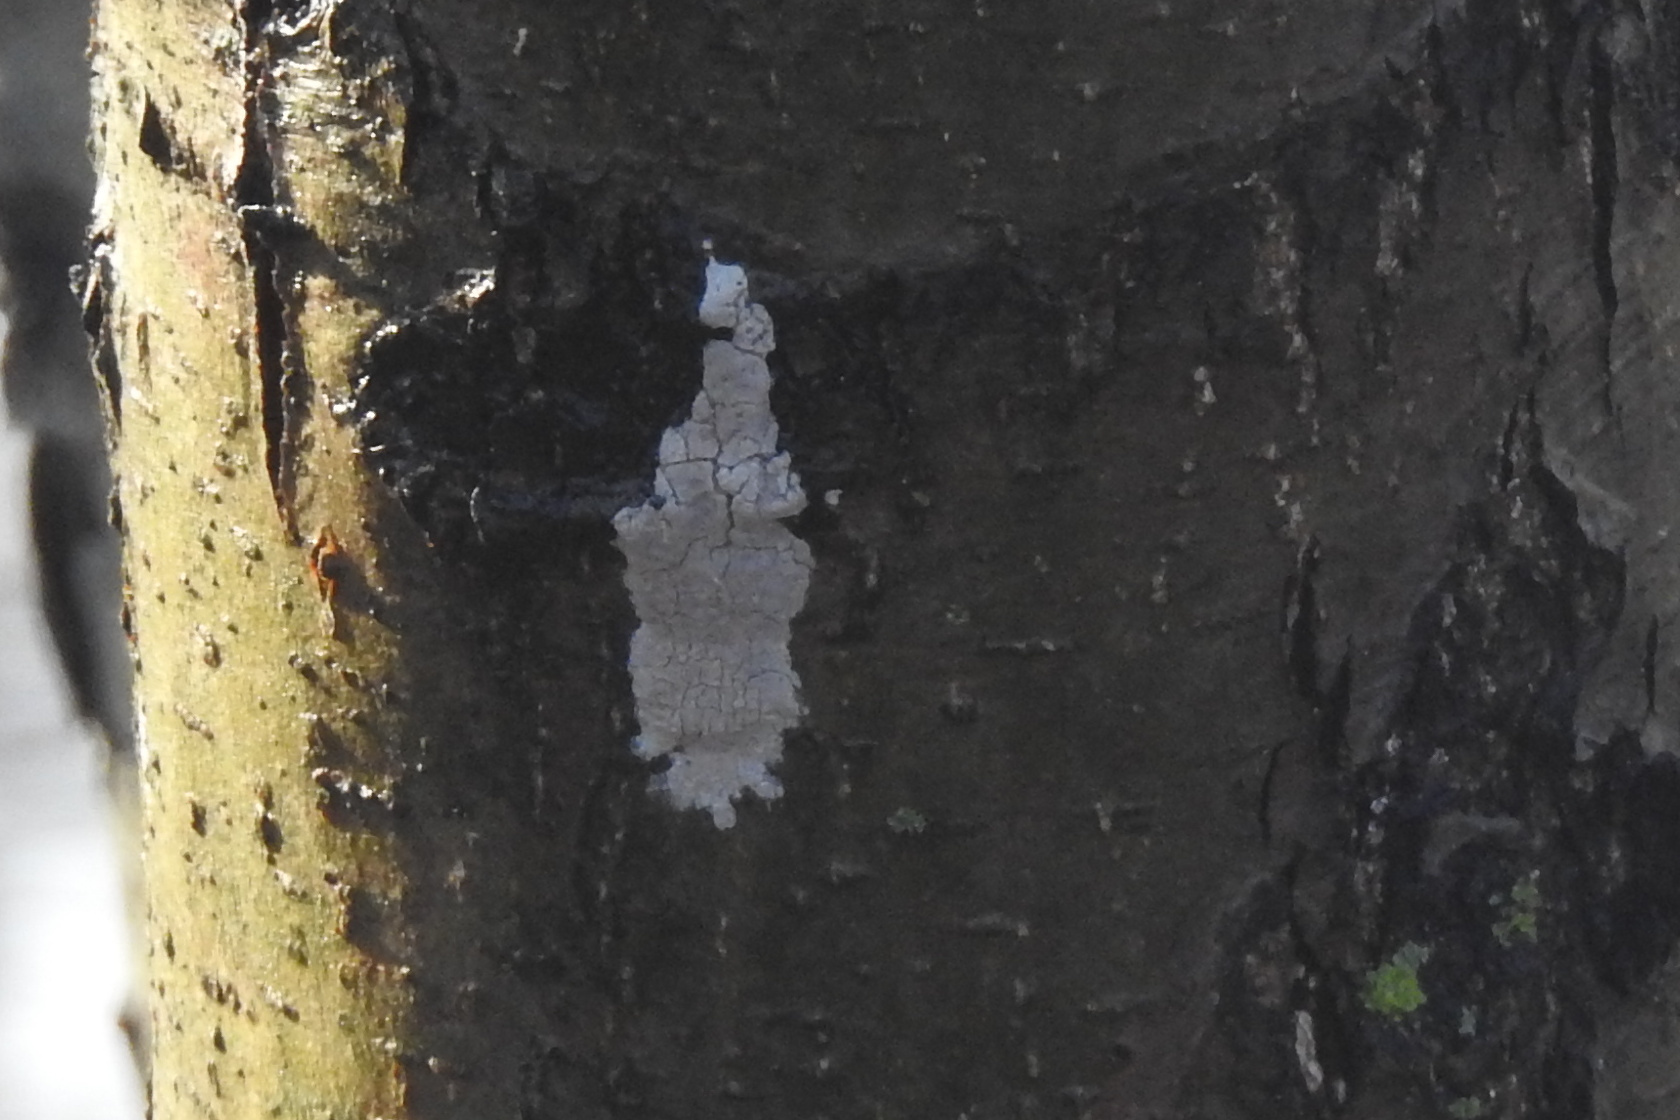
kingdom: Animalia
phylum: Arthropoda
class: Insecta
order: Hemiptera
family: Fulgoridae
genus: Lycorma
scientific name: Lycorma delicatula
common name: Spotted lanternfly
